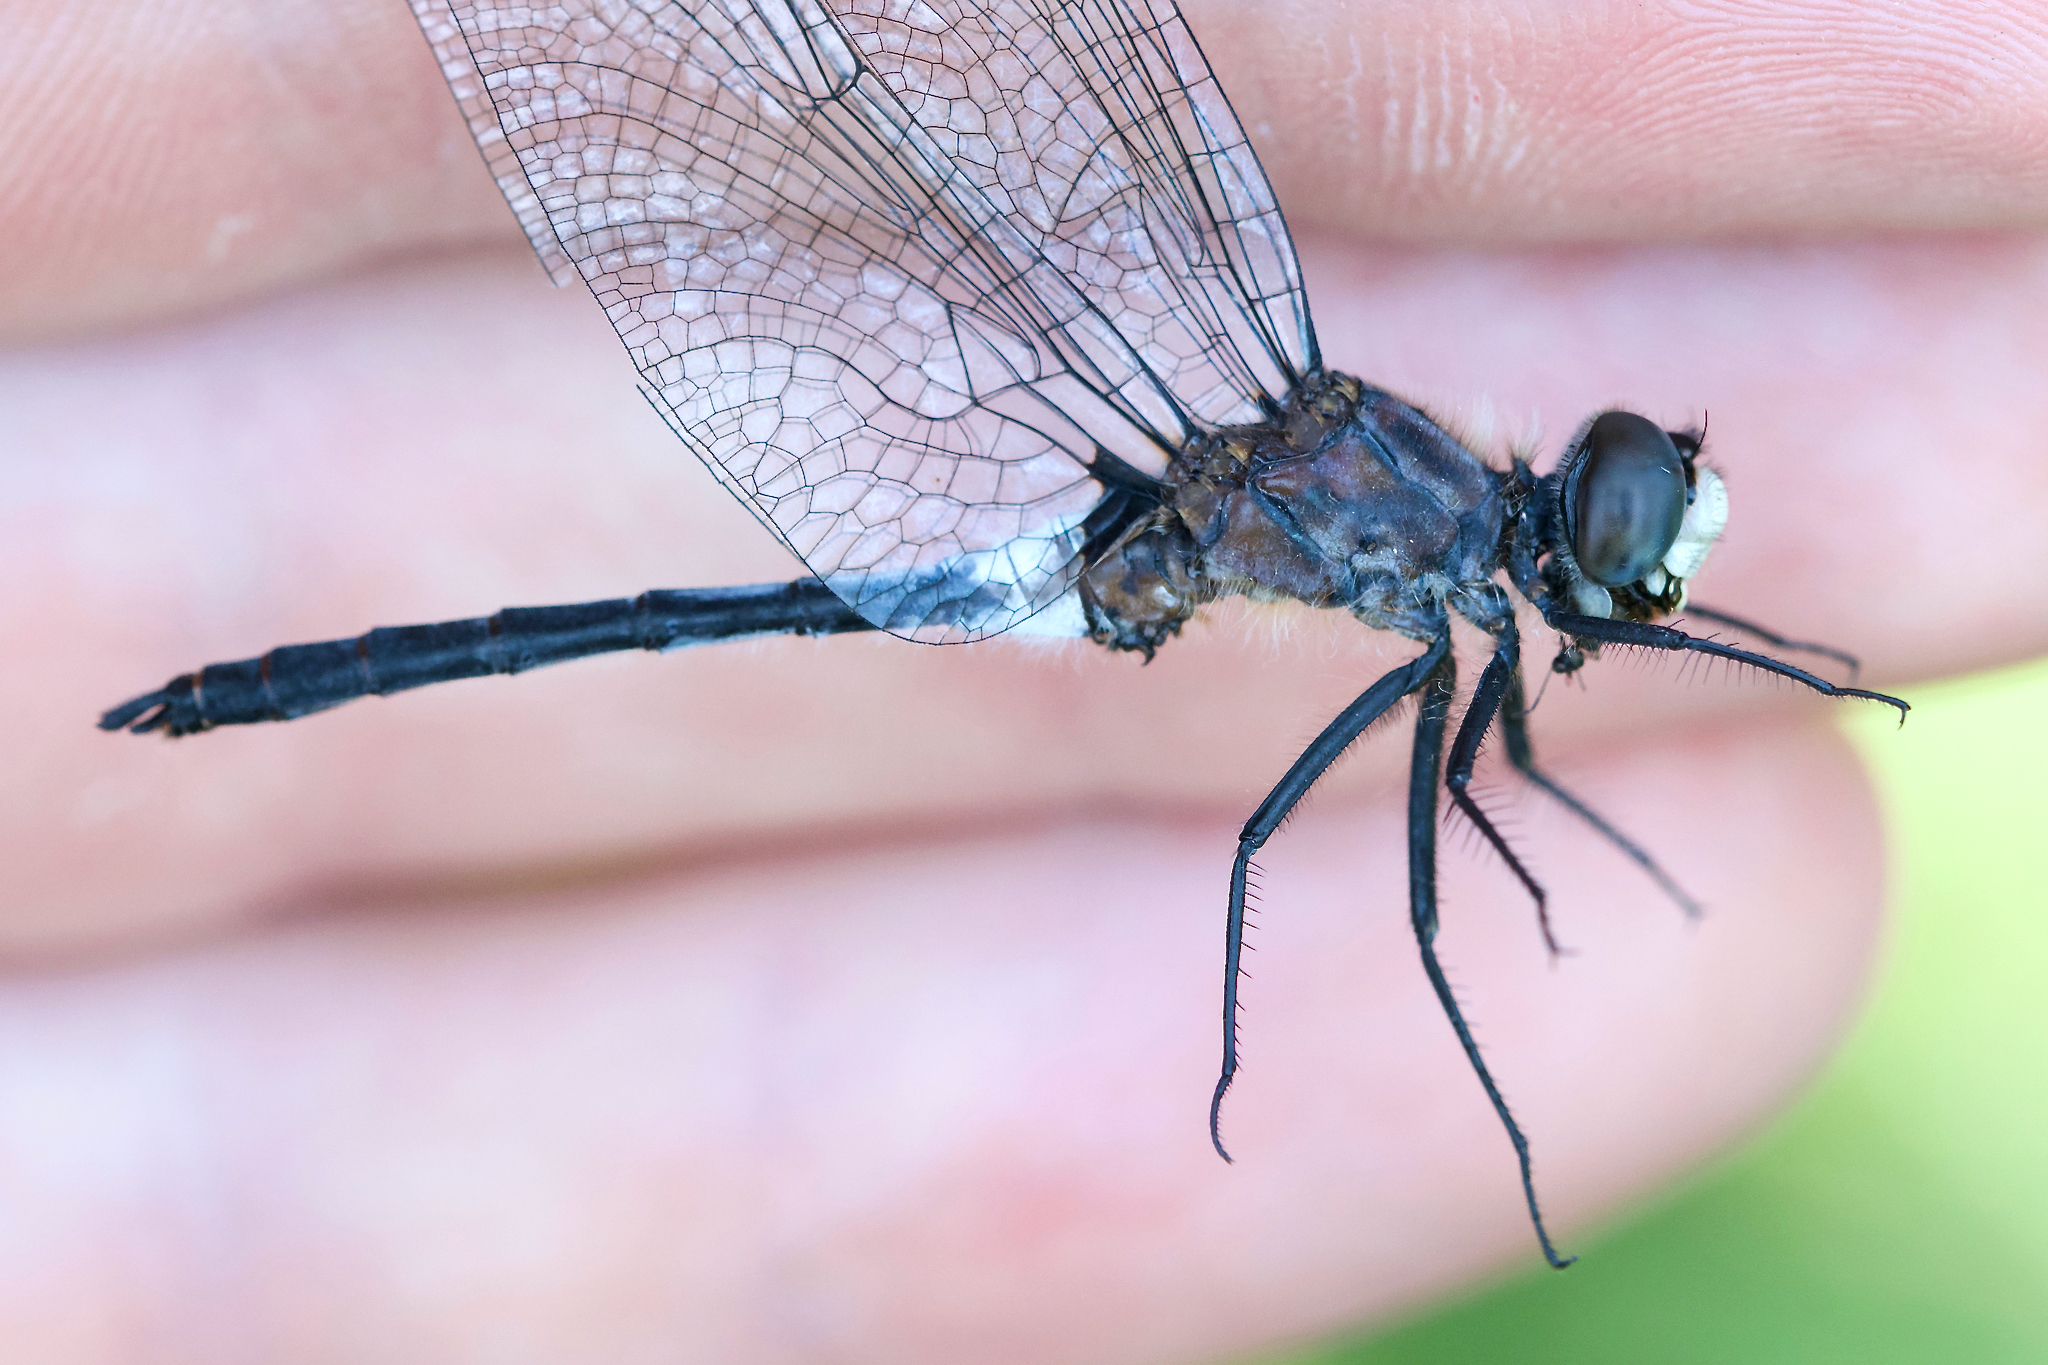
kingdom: Animalia
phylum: Arthropoda
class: Insecta
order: Odonata
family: Libellulidae
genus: Leucorrhinia
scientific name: Leucorrhinia proxima
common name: Belted whiteface
